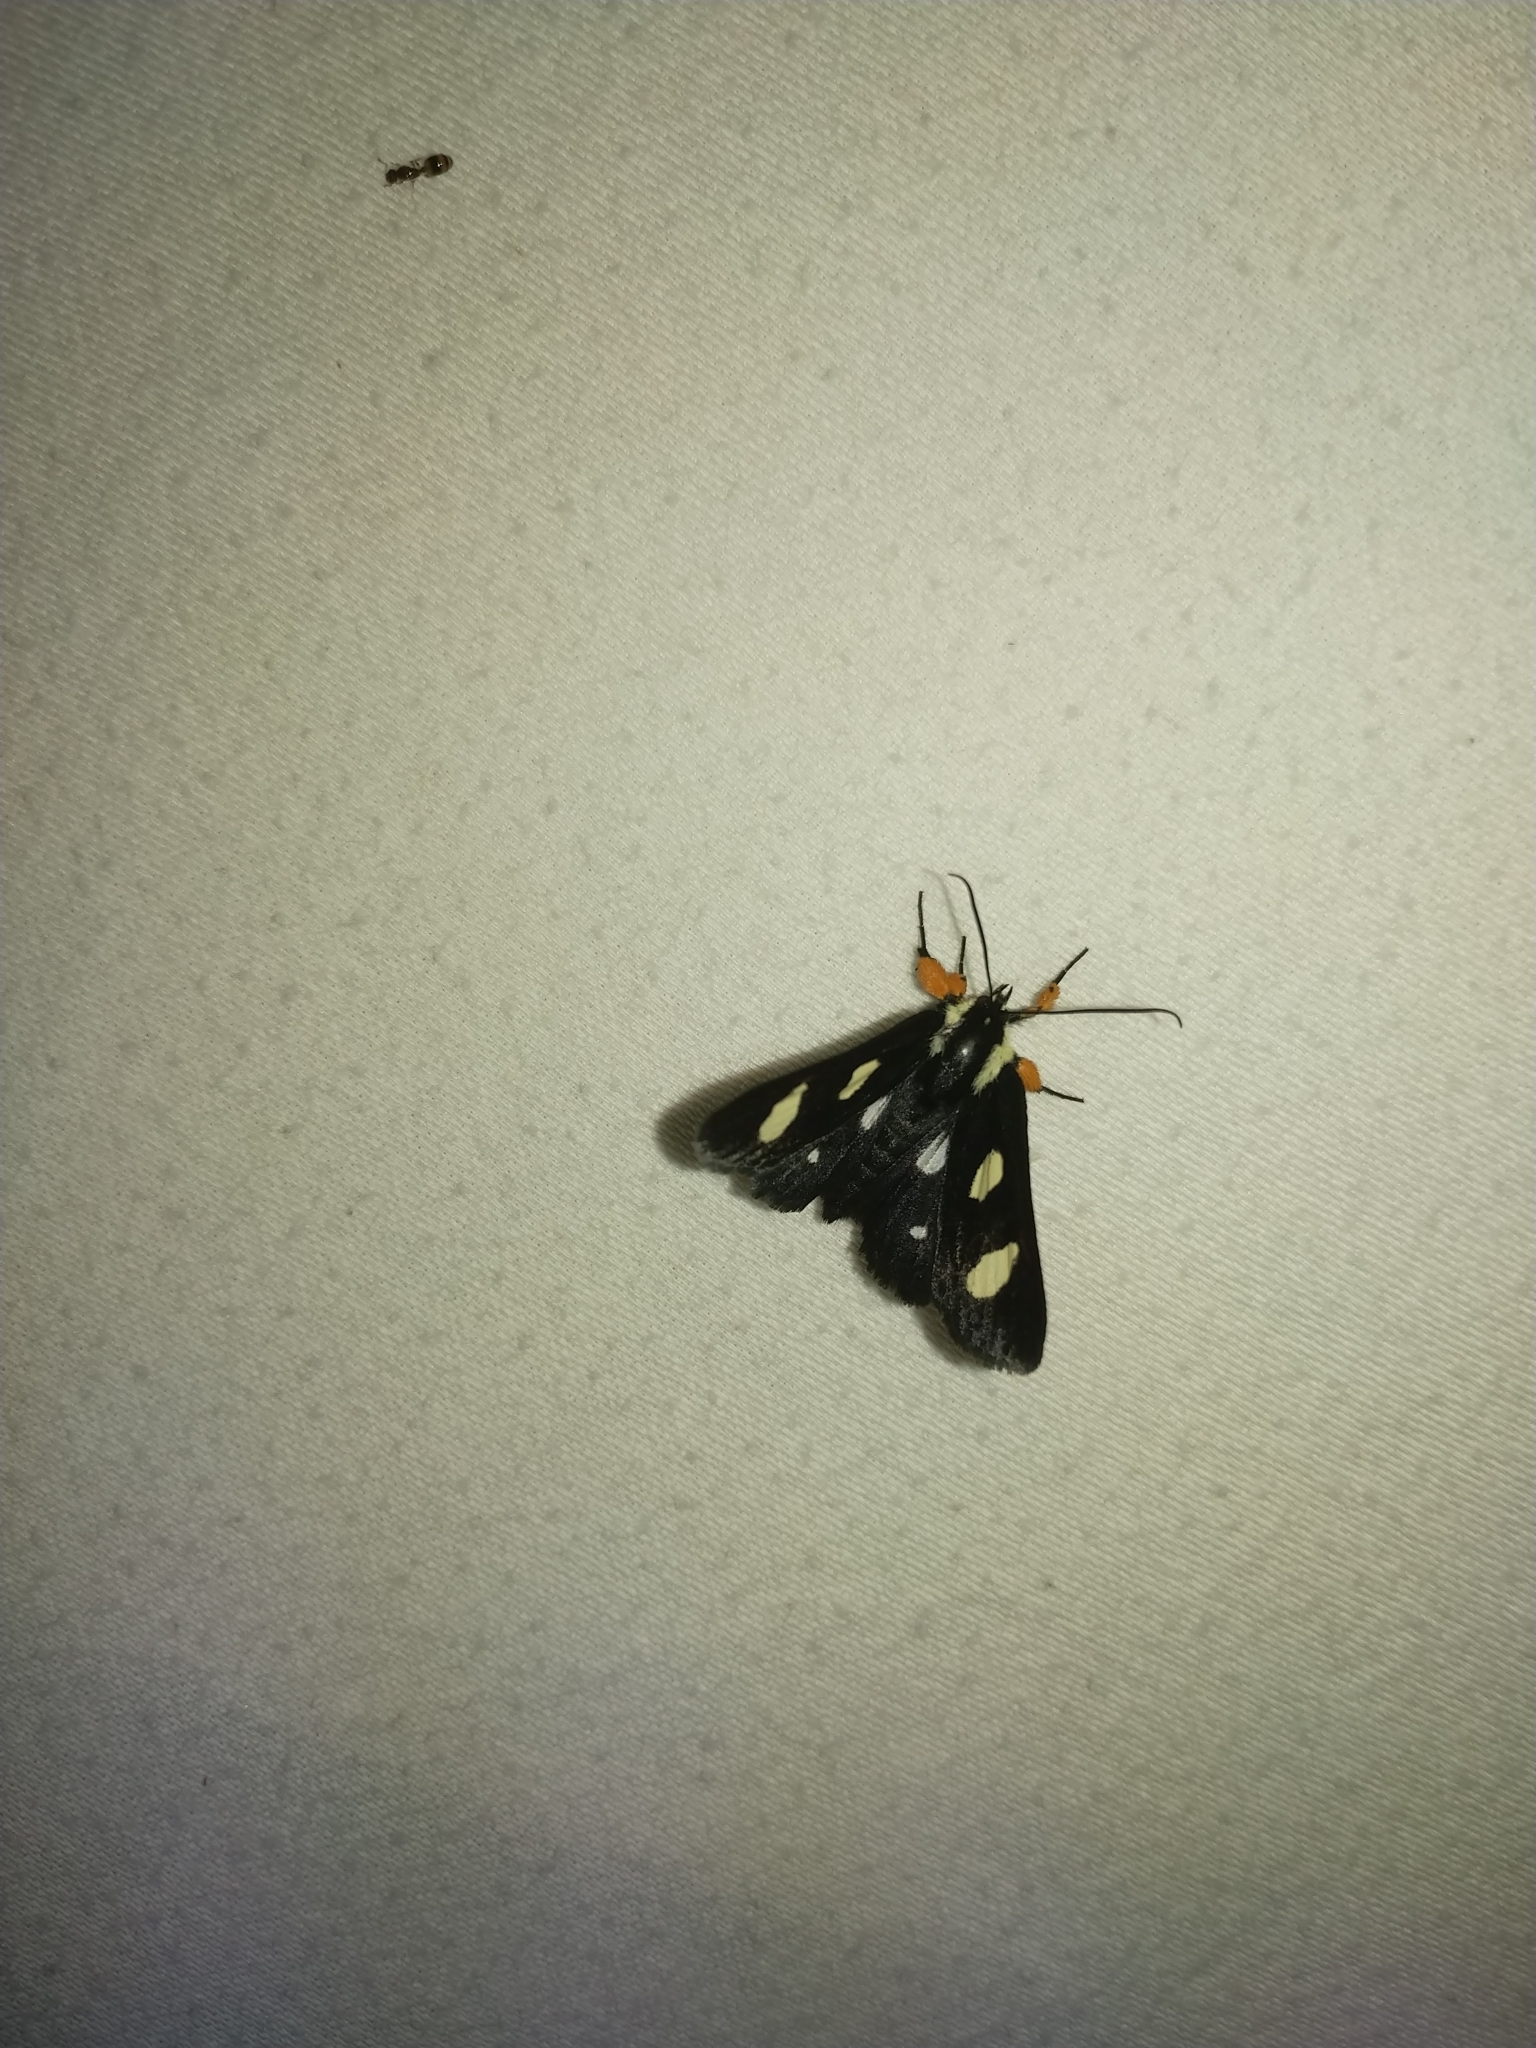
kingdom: Animalia
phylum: Arthropoda
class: Insecta
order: Lepidoptera
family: Noctuidae
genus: Alypia
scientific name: Alypia octomaculata
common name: Eight-spotted forester
